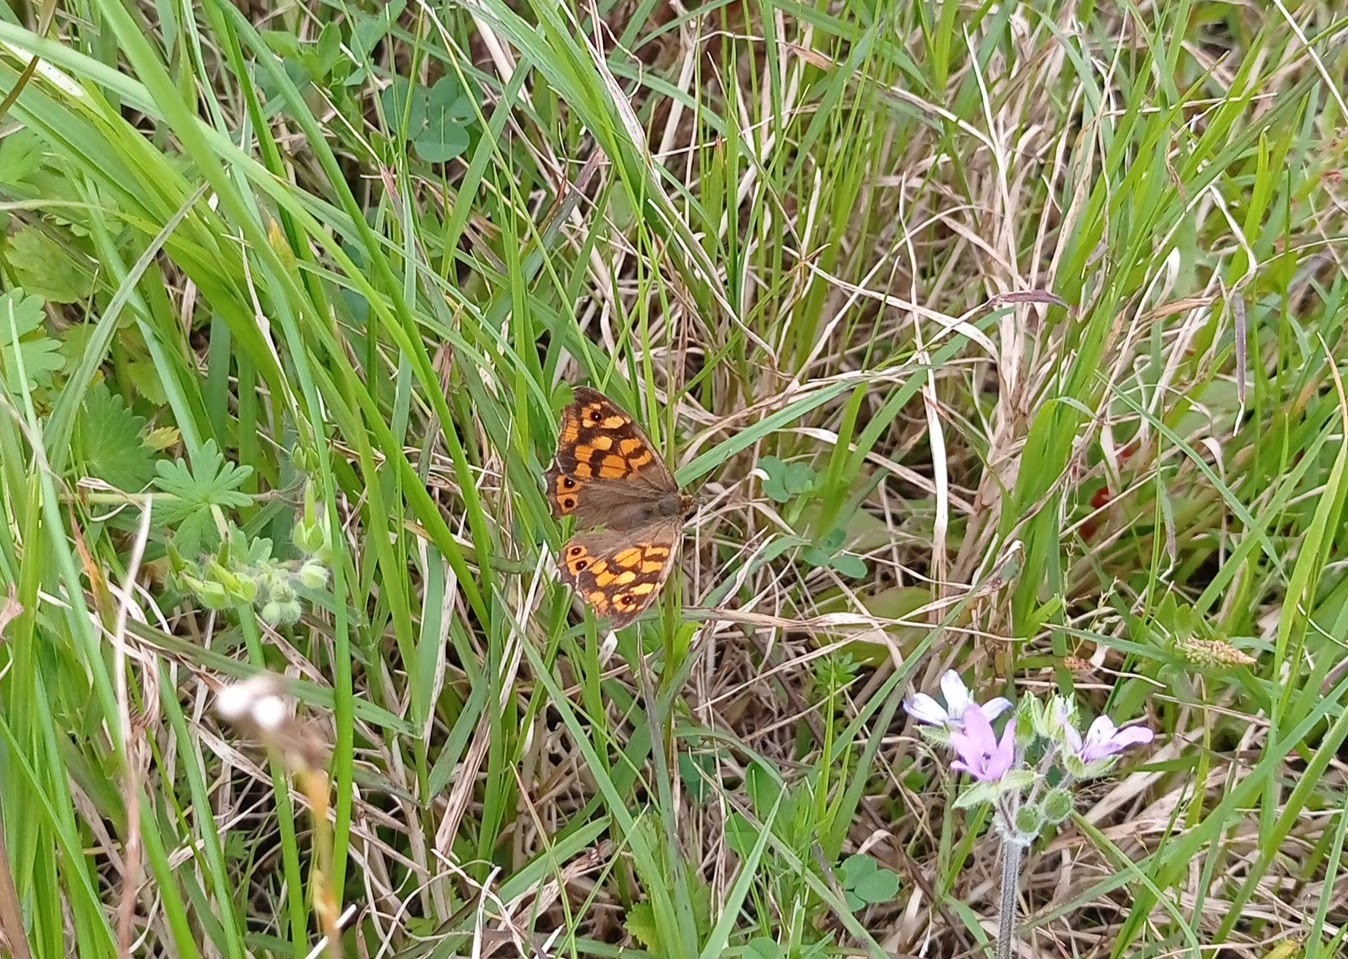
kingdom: Animalia
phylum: Arthropoda
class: Insecta
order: Lepidoptera
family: Nymphalidae
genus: Pararge
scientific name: Pararge aegeria
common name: Speckled wood
